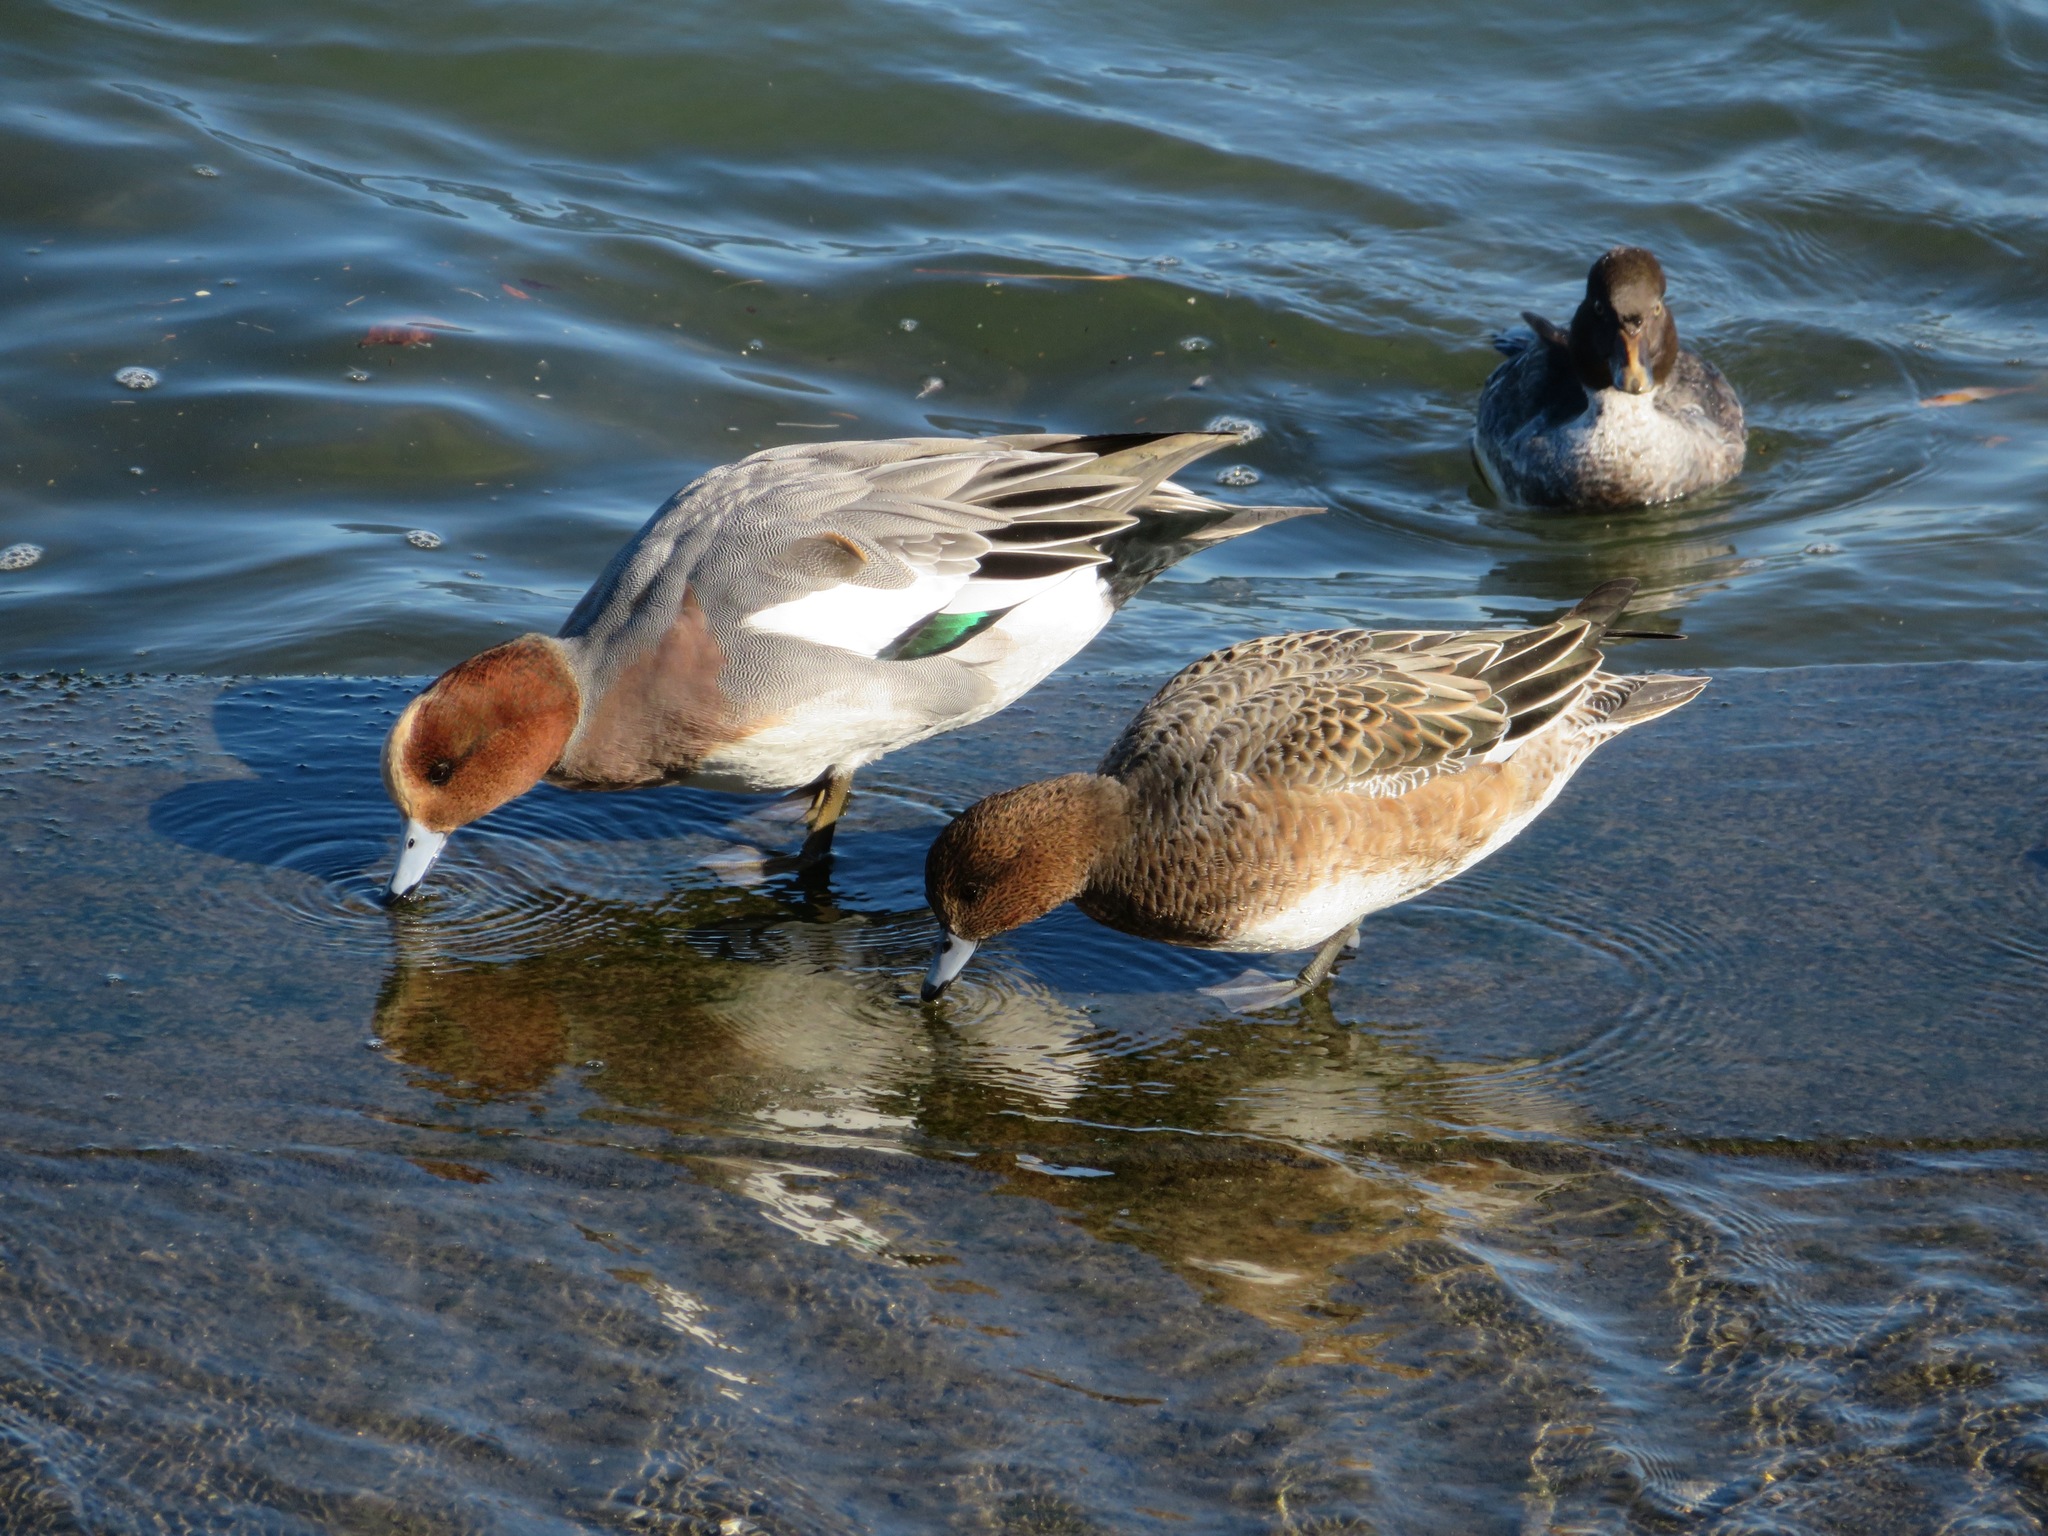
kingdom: Animalia
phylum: Chordata
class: Aves
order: Anseriformes
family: Anatidae
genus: Mareca
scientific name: Mareca penelope
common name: Eurasian wigeon
